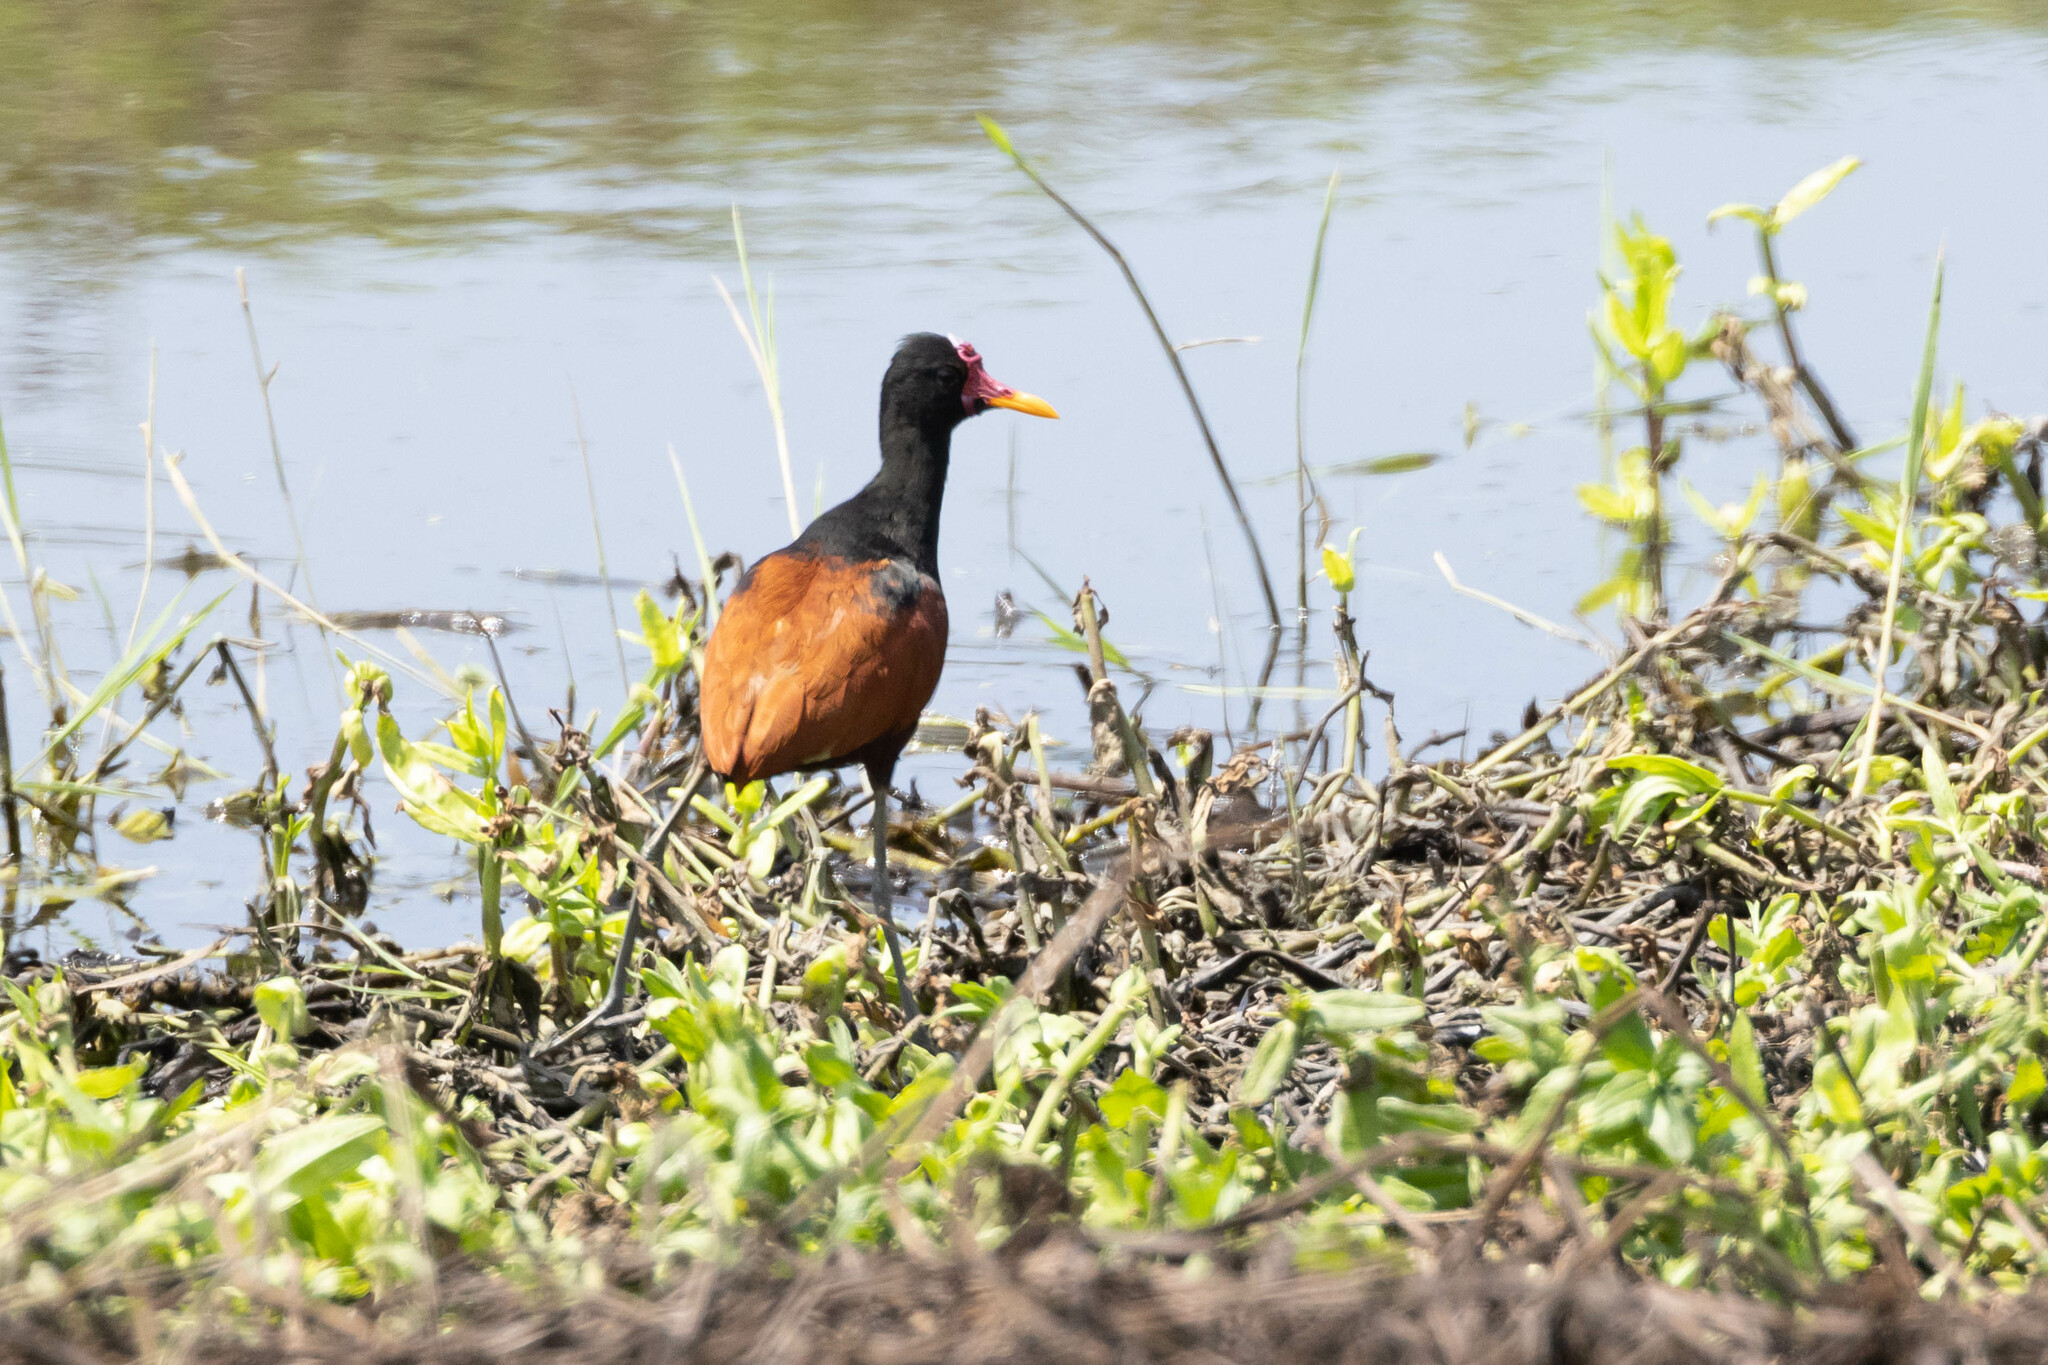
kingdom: Animalia
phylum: Chordata
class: Aves
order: Charadriiformes
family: Jacanidae
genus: Jacana
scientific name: Jacana jacana
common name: Wattled jacana
